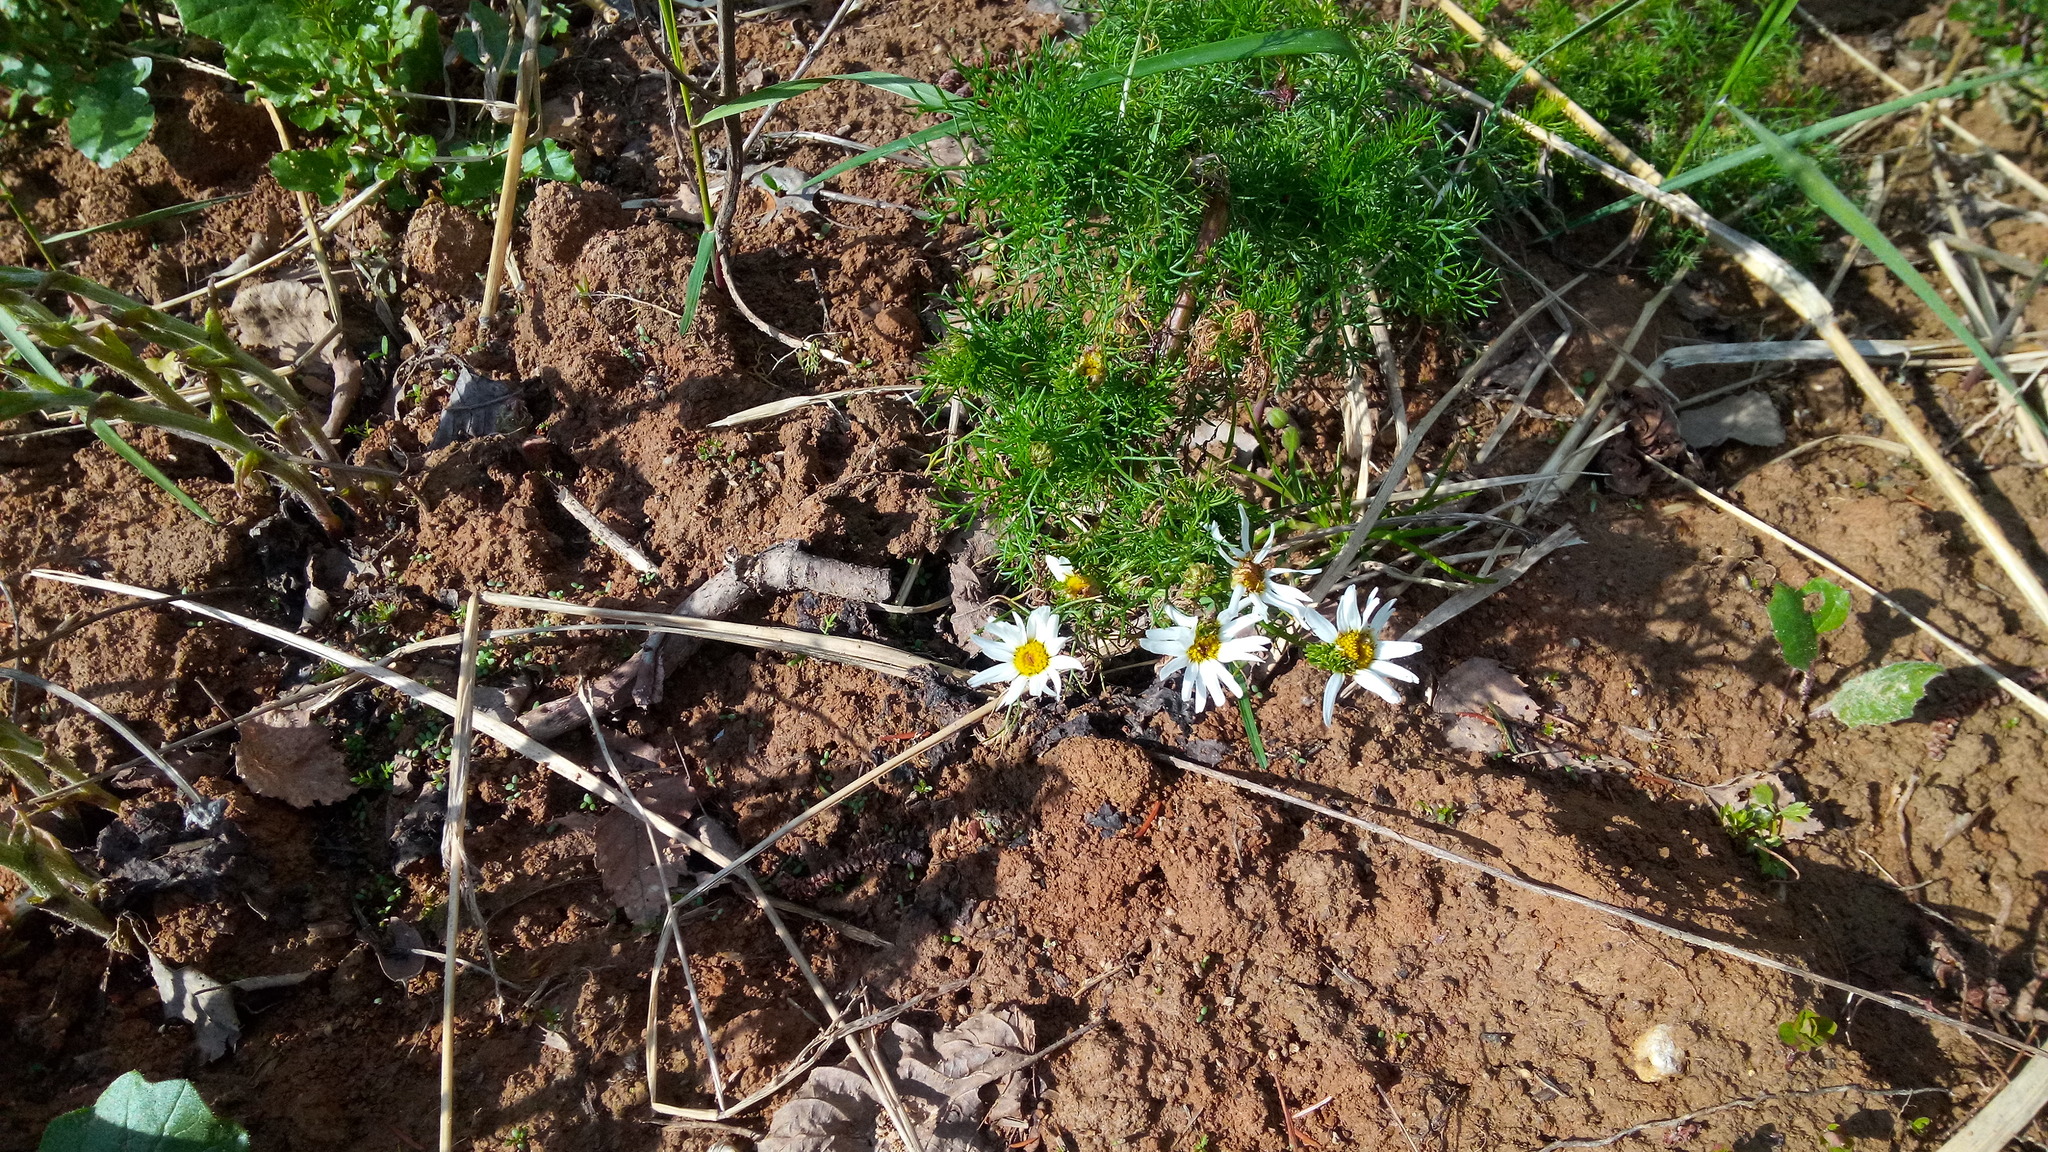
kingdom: Plantae
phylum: Tracheophyta
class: Magnoliopsida
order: Asterales
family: Asteraceae
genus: Tripleurospermum
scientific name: Tripleurospermum inodorum
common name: Scentless mayweed
